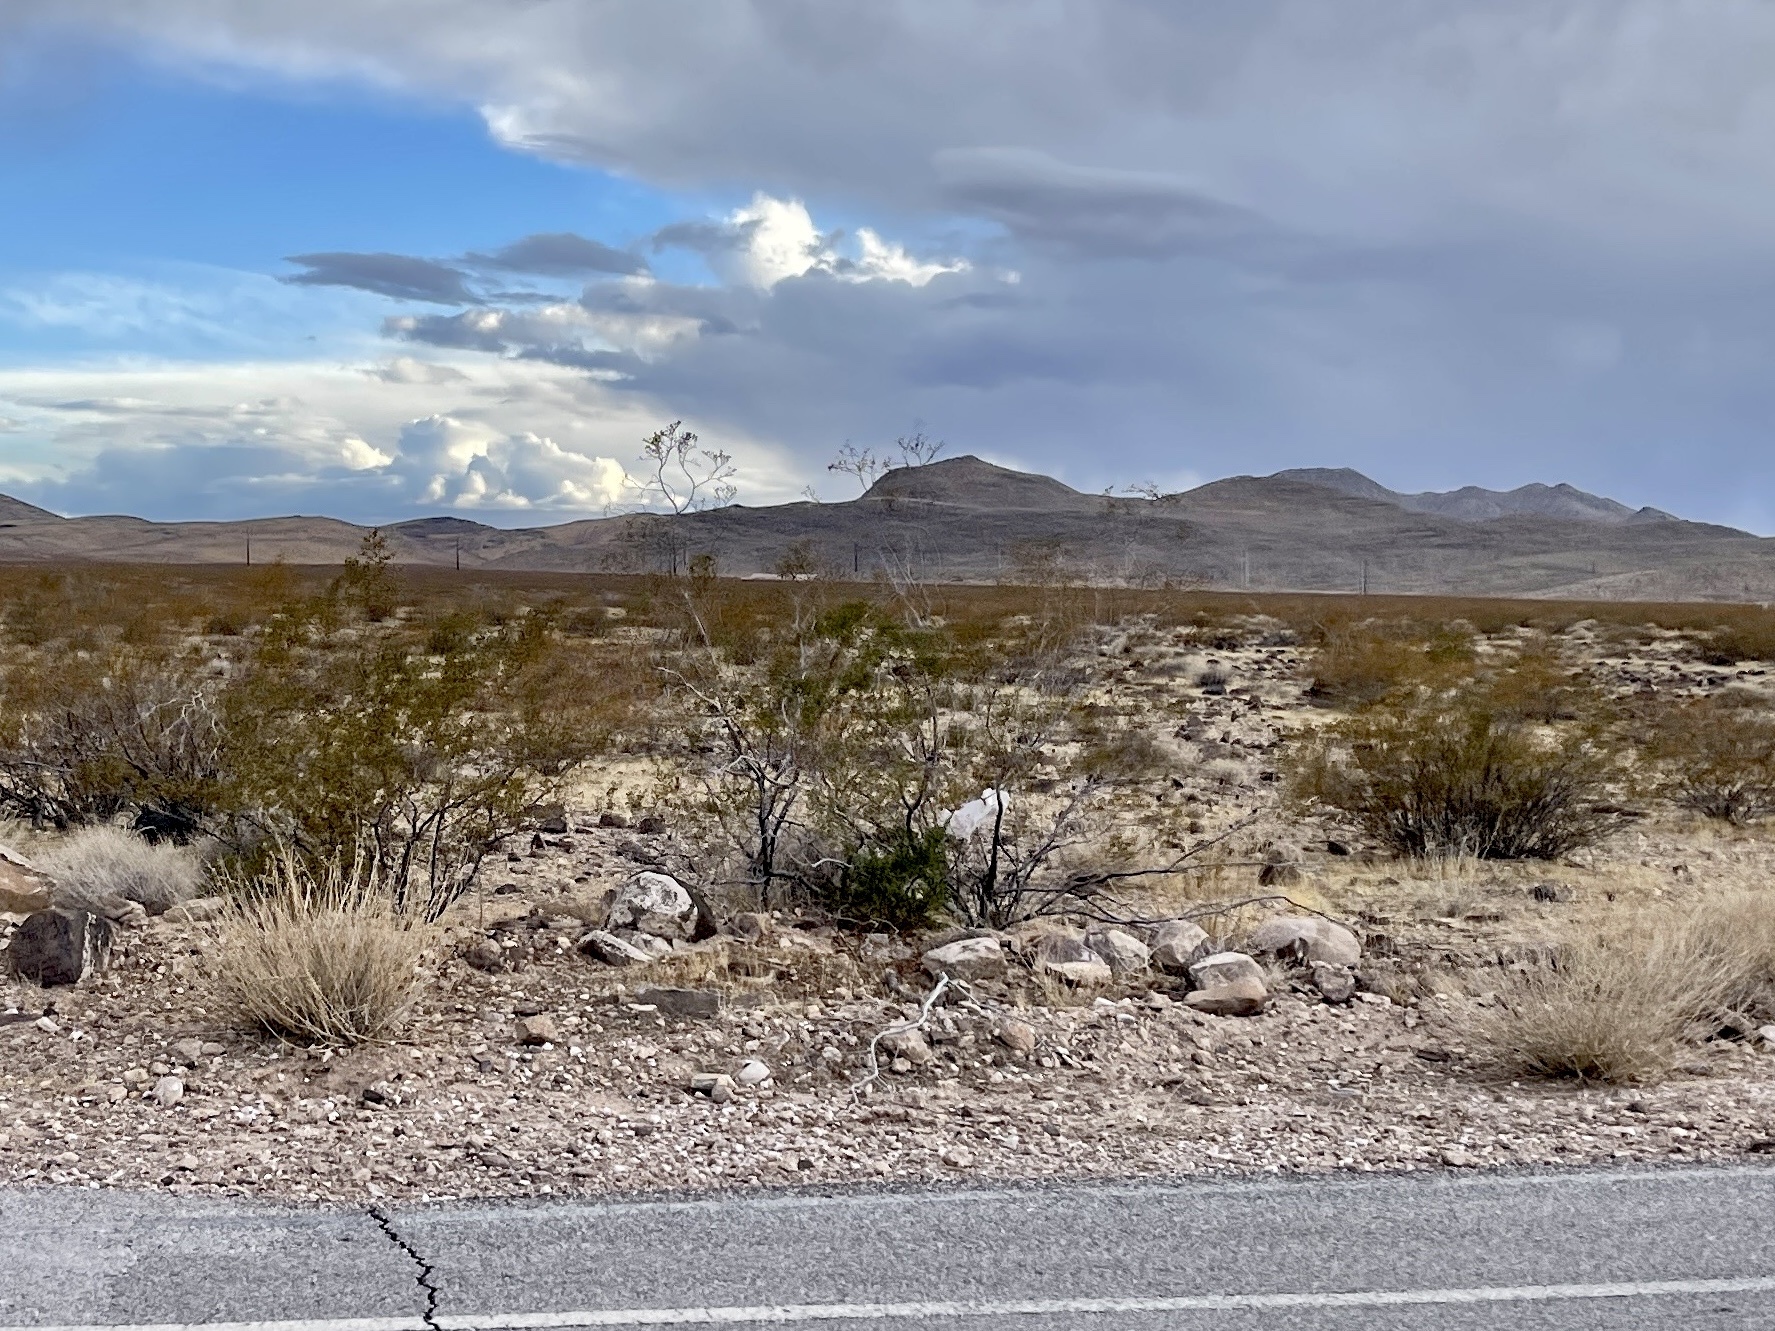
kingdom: Plantae
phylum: Tracheophyta
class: Magnoliopsida
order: Zygophyllales
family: Zygophyllaceae
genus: Larrea
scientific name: Larrea tridentata
